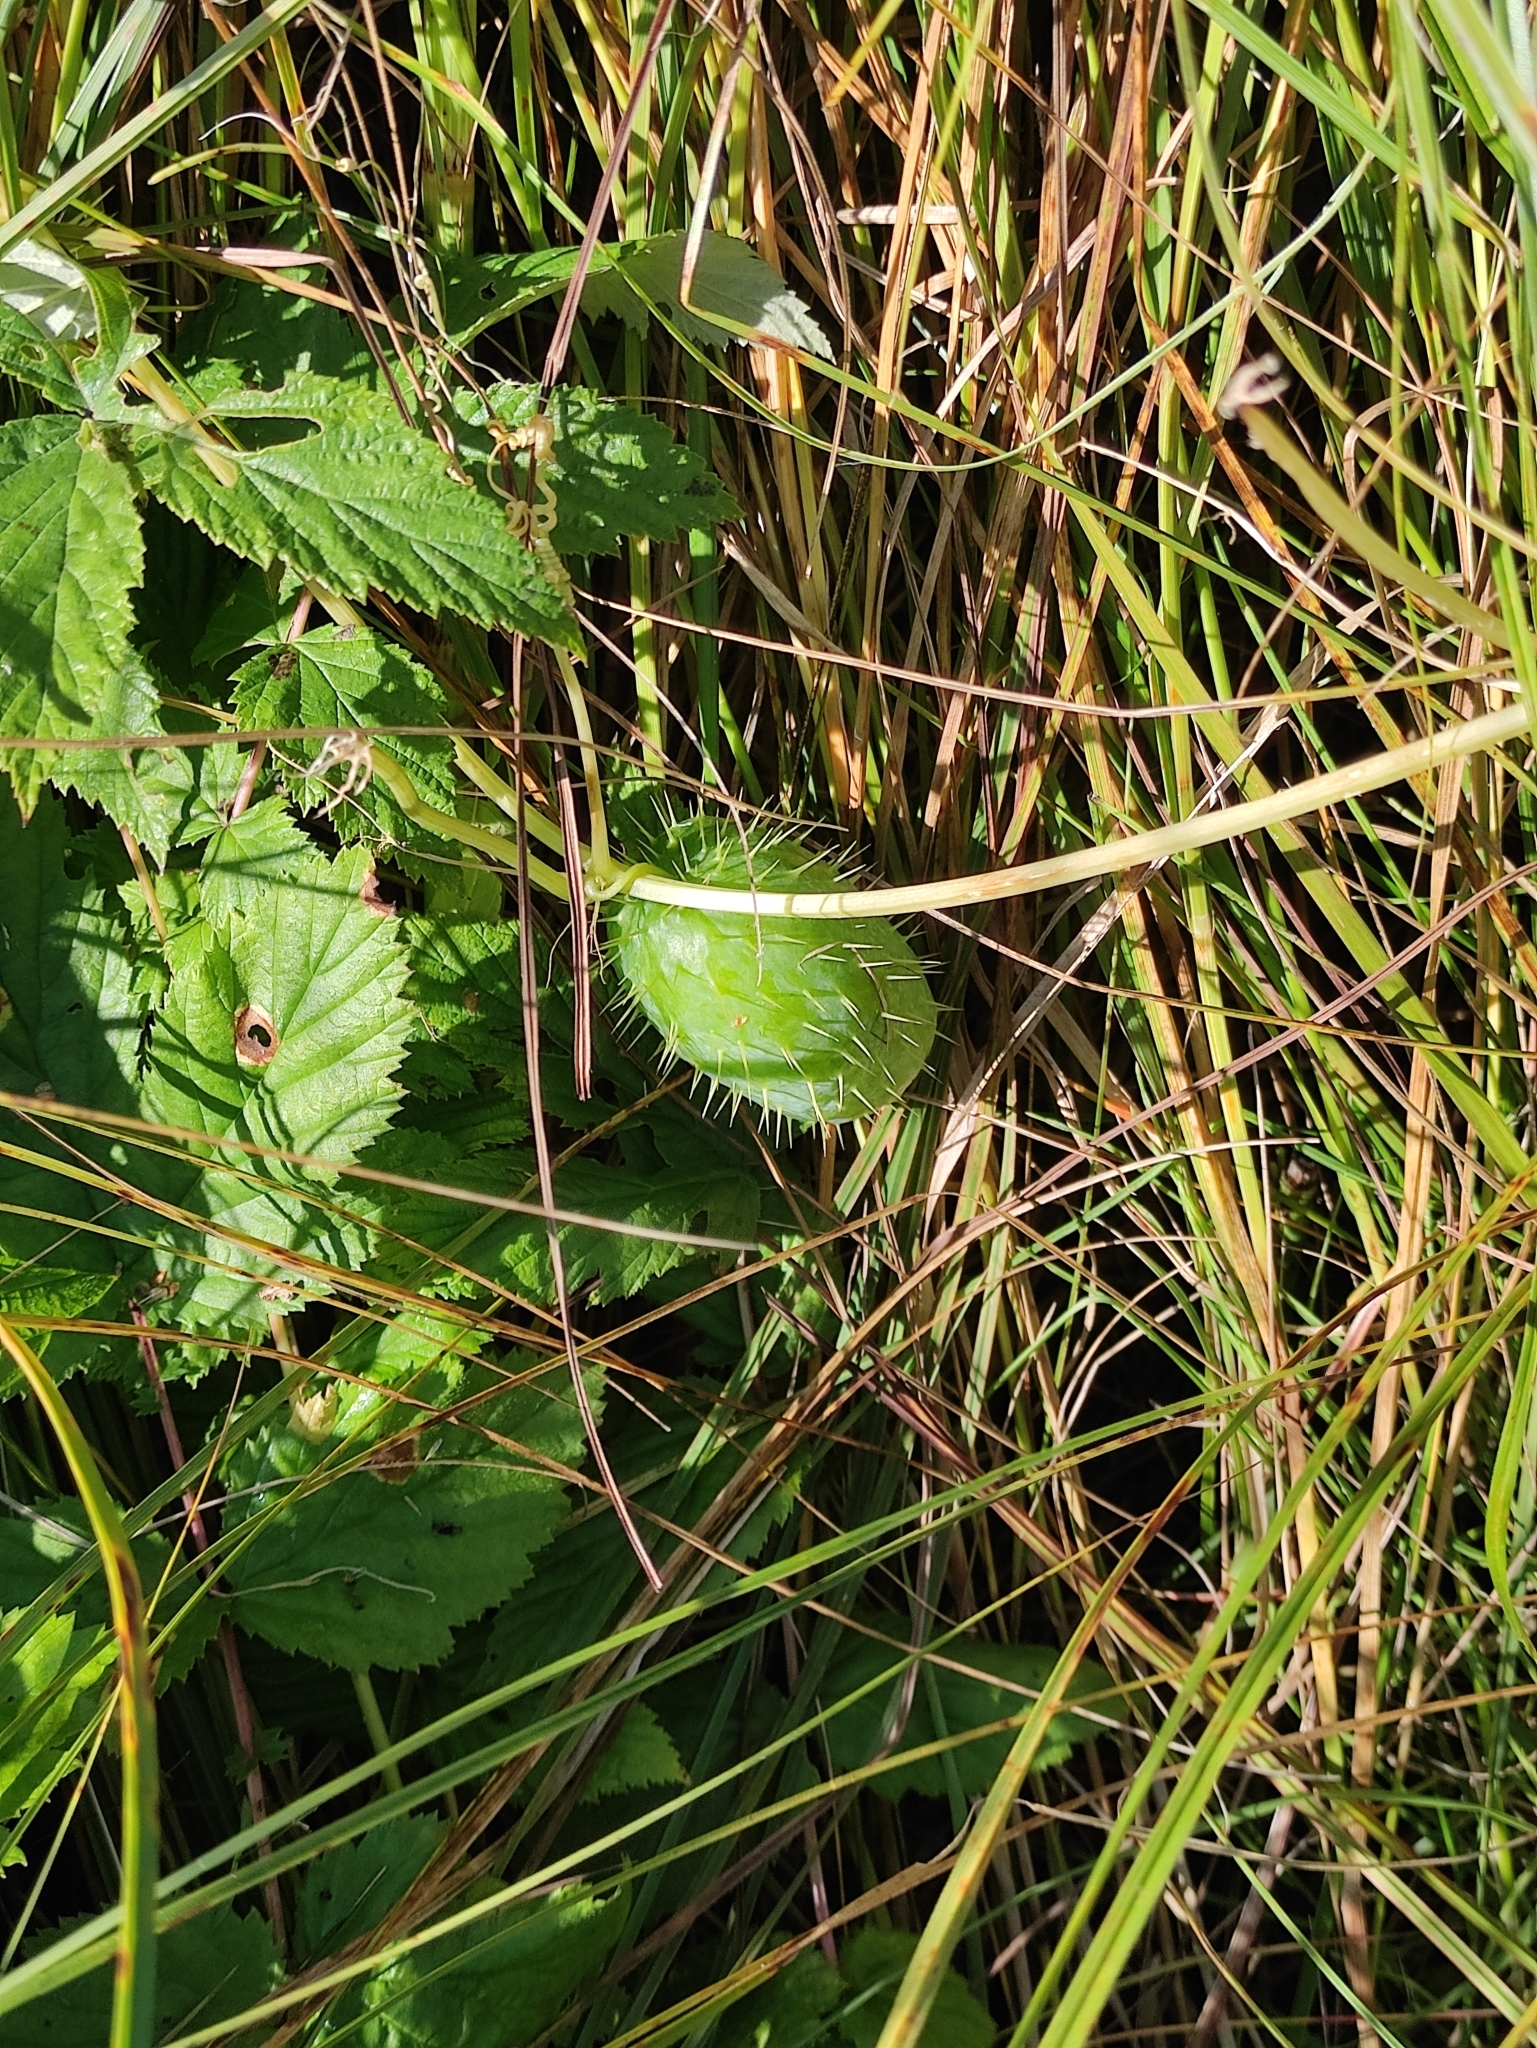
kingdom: Plantae
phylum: Tracheophyta
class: Magnoliopsida
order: Cucurbitales
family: Cucurbitaceae
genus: Echinocystis
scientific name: Echinocystis lobata
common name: Wild cucumber
